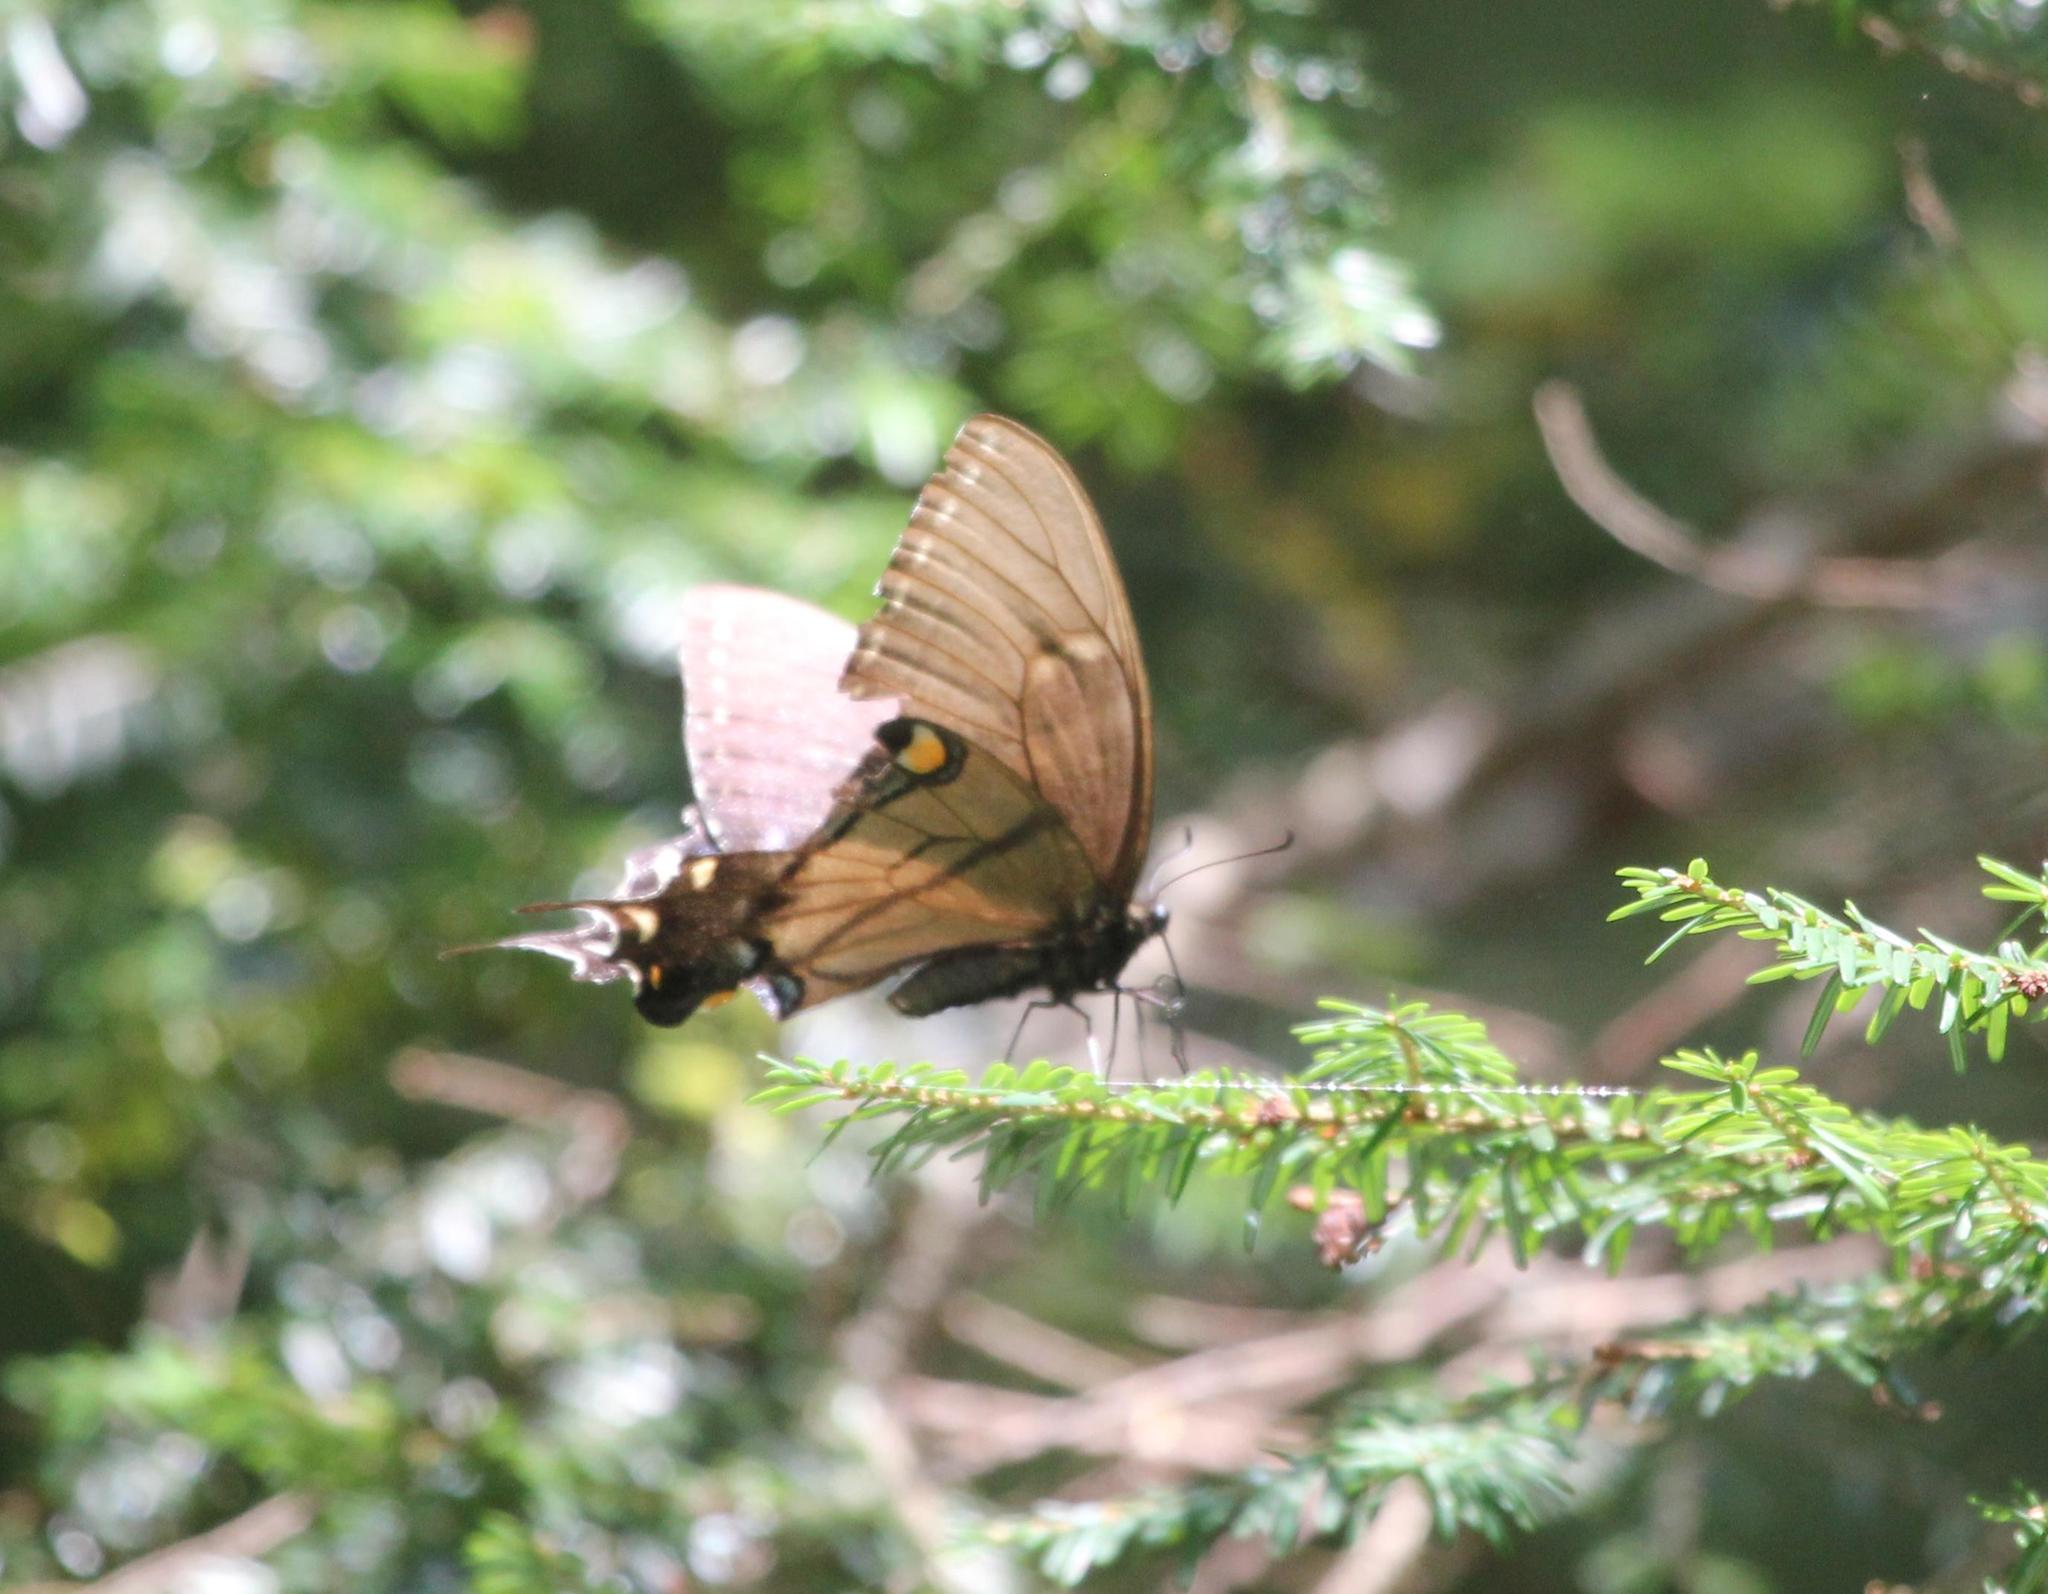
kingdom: Animalia
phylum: Arthropoda
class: Insecta
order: Lepidoptera
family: Papilionidae
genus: Papilio
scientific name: Papilio glaucus
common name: Tiger swallowtail
